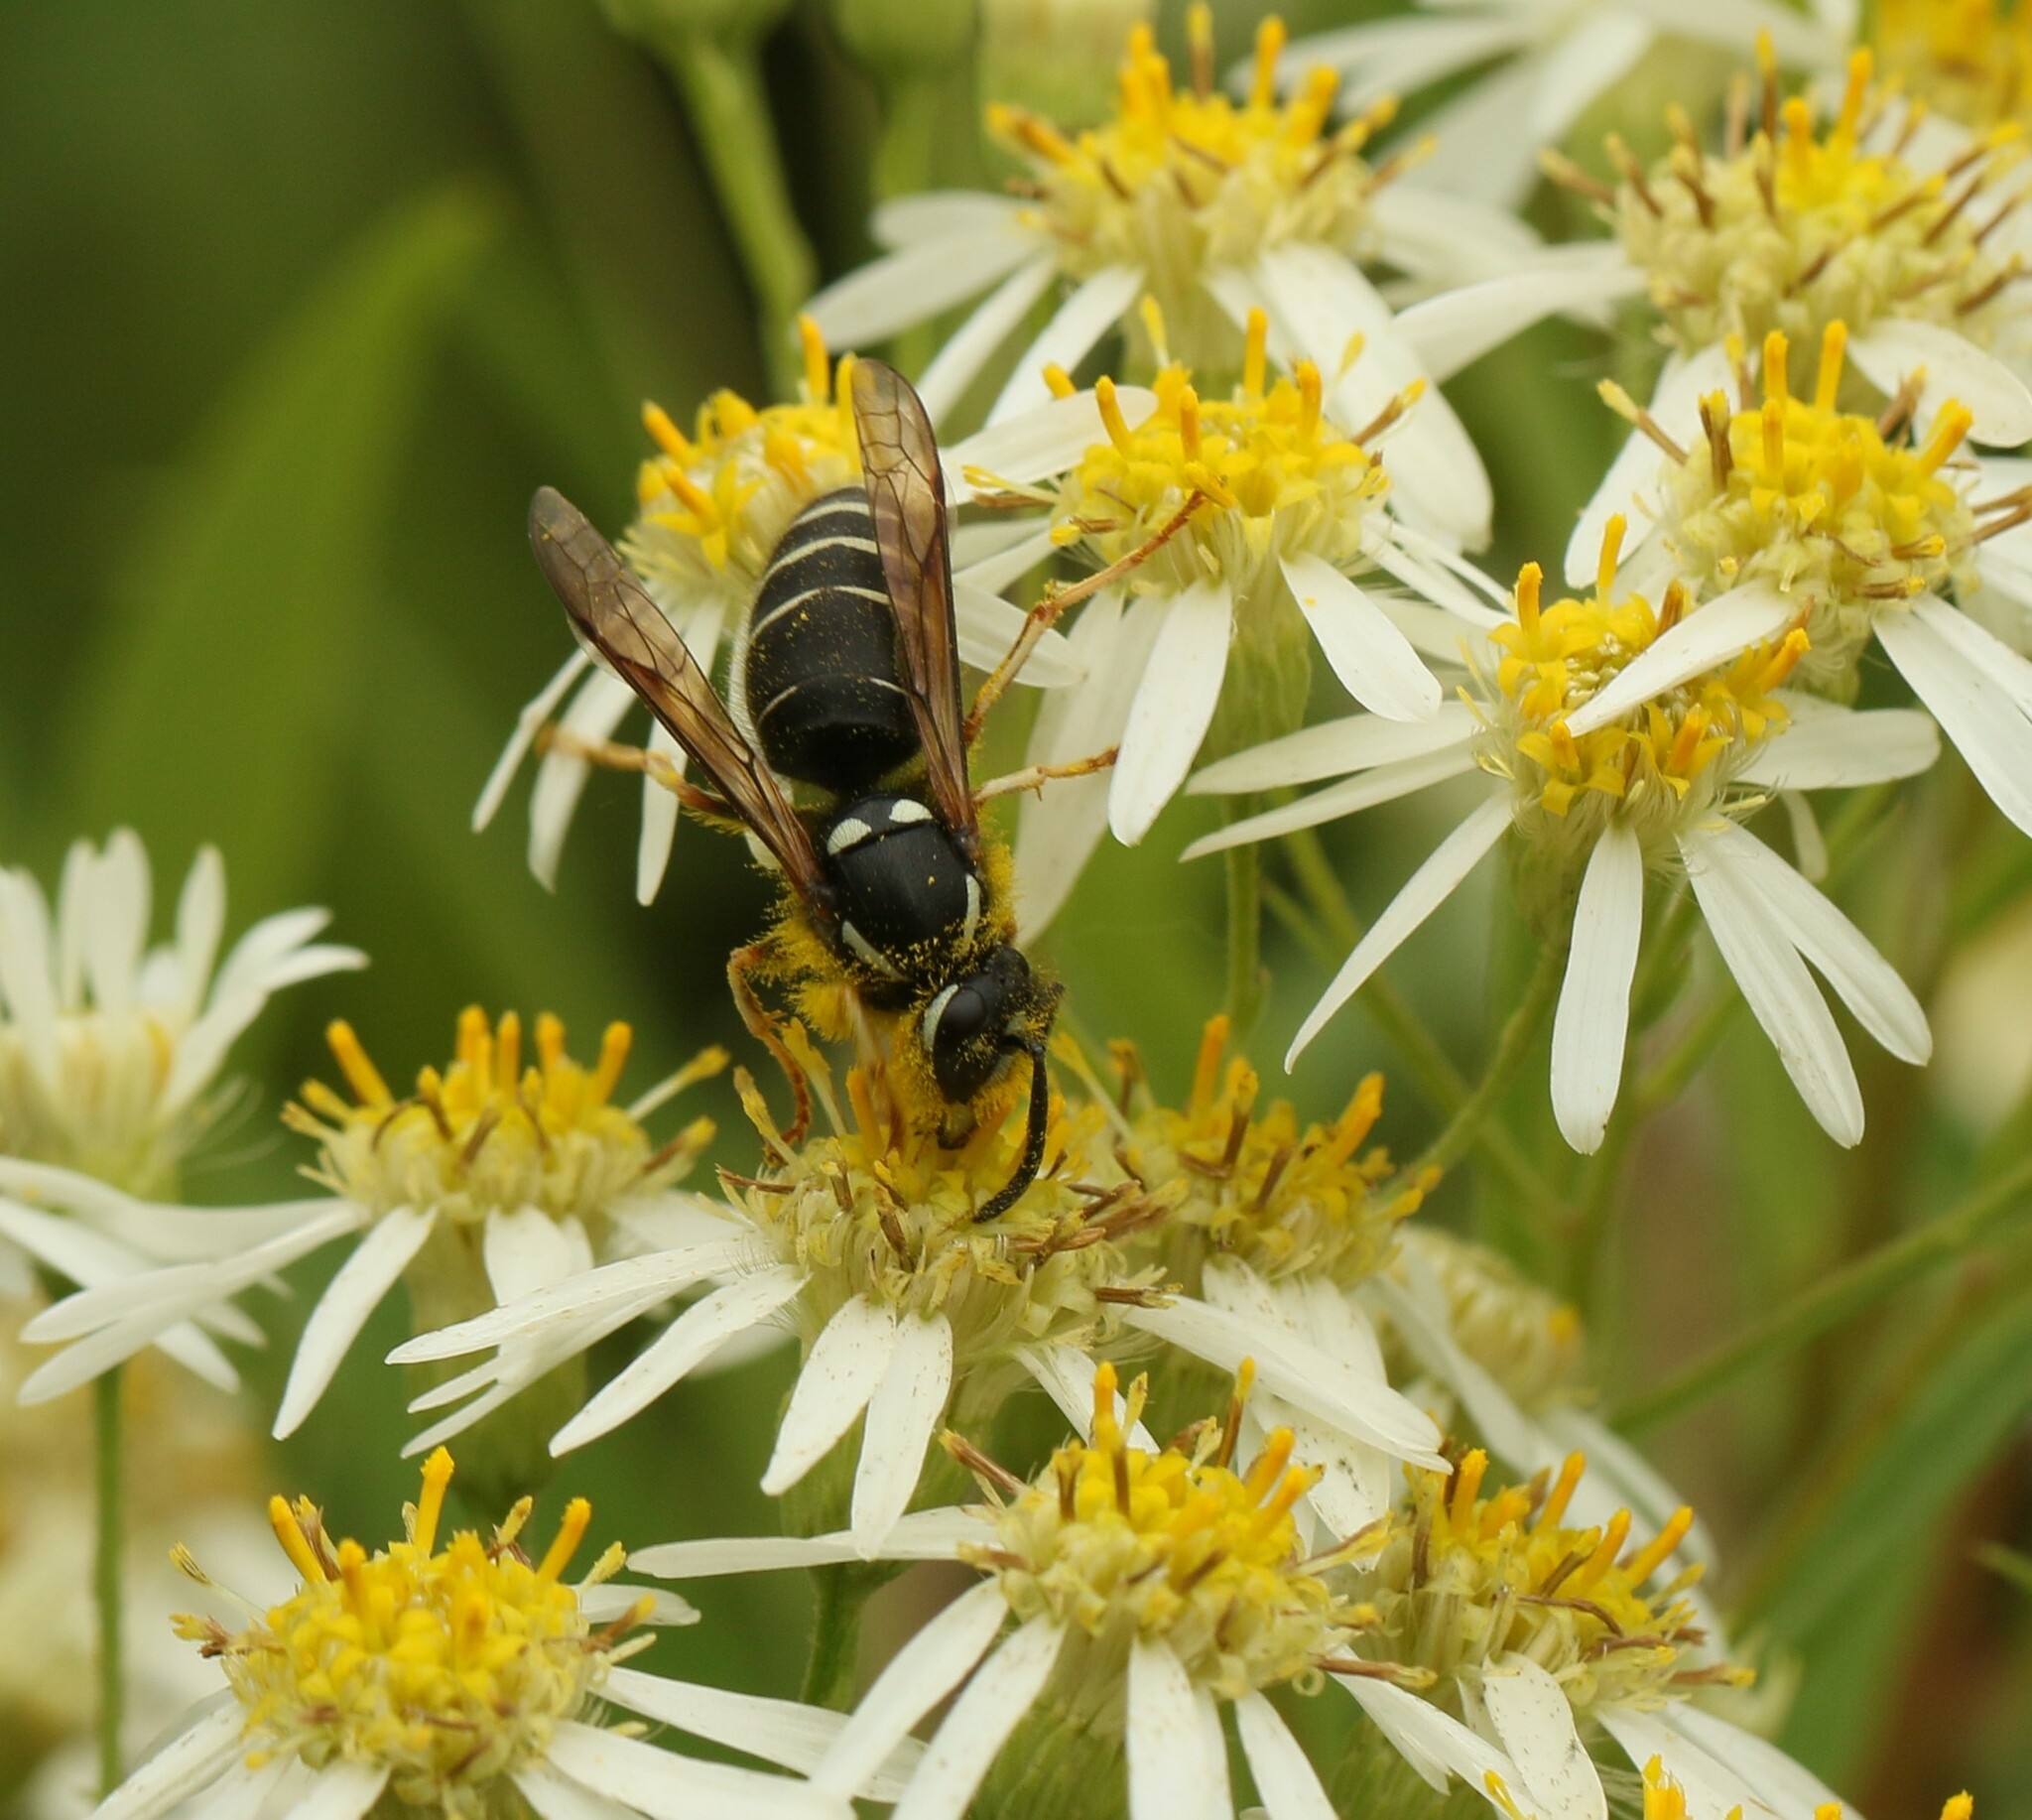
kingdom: Animalia
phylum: Arthropoda
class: Insecta
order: Hymenoptera
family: Vespidae
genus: Vespula
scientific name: Vespula consobrina
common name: Blackjacket
